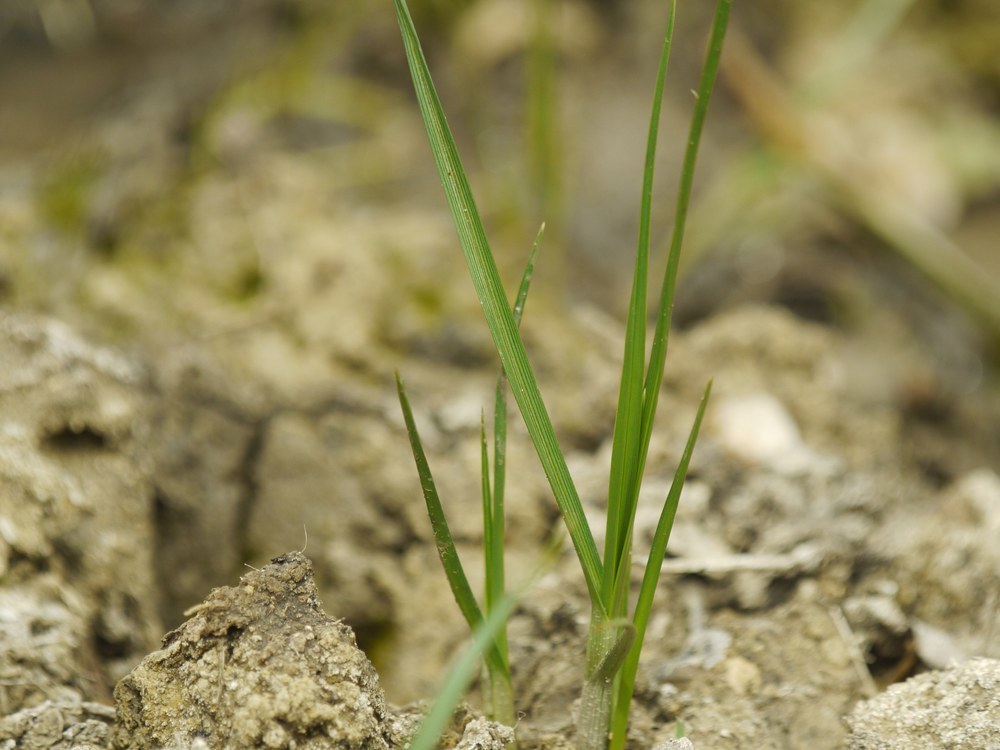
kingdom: Plantae
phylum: Tracheophyta
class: Liliopsida
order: Poales
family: Cyperaceae
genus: Bolboschoenus
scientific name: Bolboschoenus maritimus
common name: Sea club-rush
